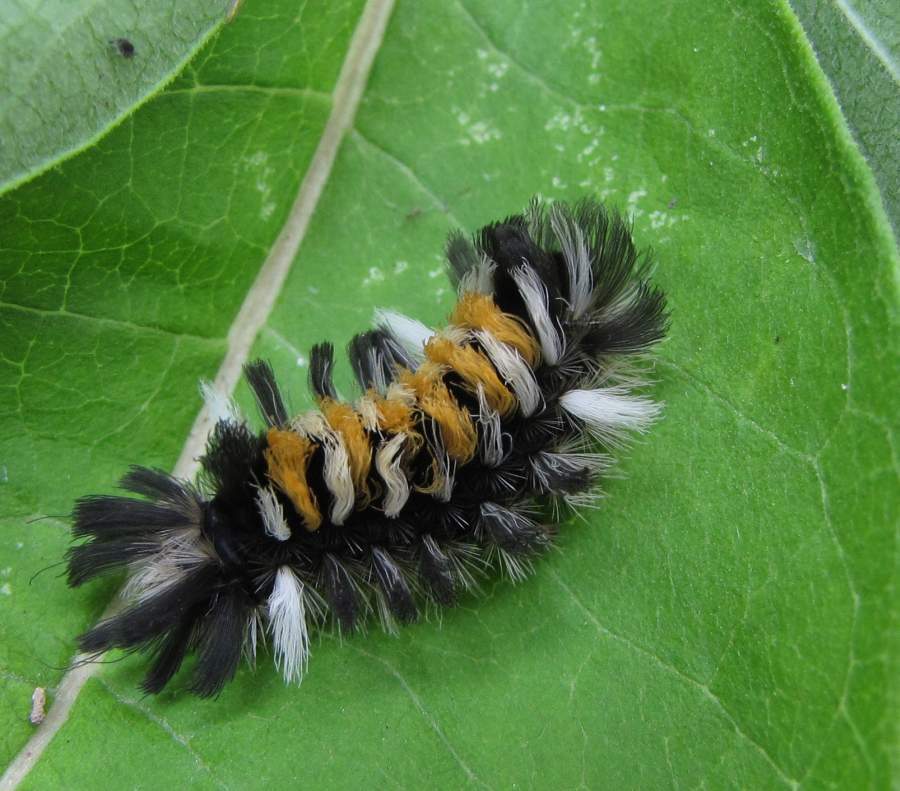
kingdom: Animalia
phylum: Arthropoda
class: Insecta
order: Lepidoptera
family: Erebidae
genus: Euchaetes
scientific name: Euchaetes egle
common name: Milkweed tussock moth
